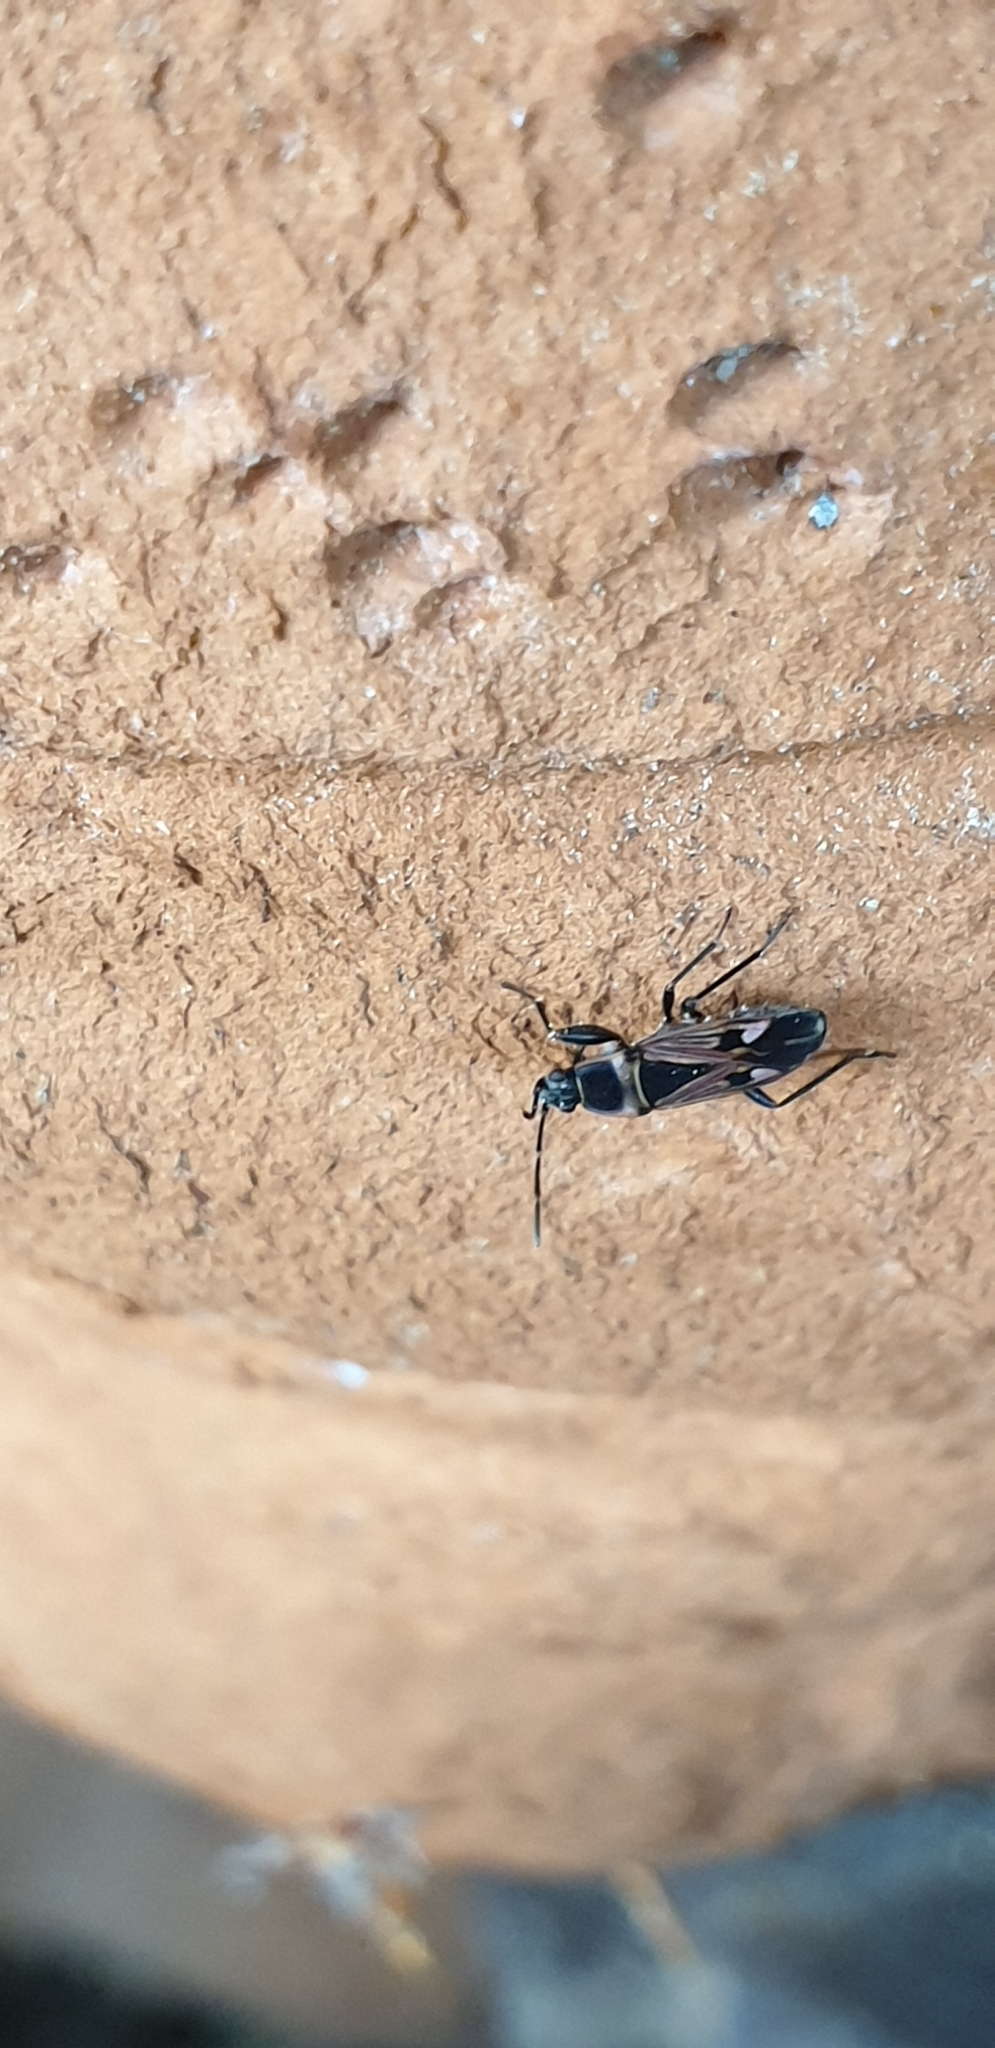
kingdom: Animalia
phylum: Arthropoda
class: Insecta
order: Hemiptera
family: Rhyparochromidae
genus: Raglius
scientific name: Raglius tristis
